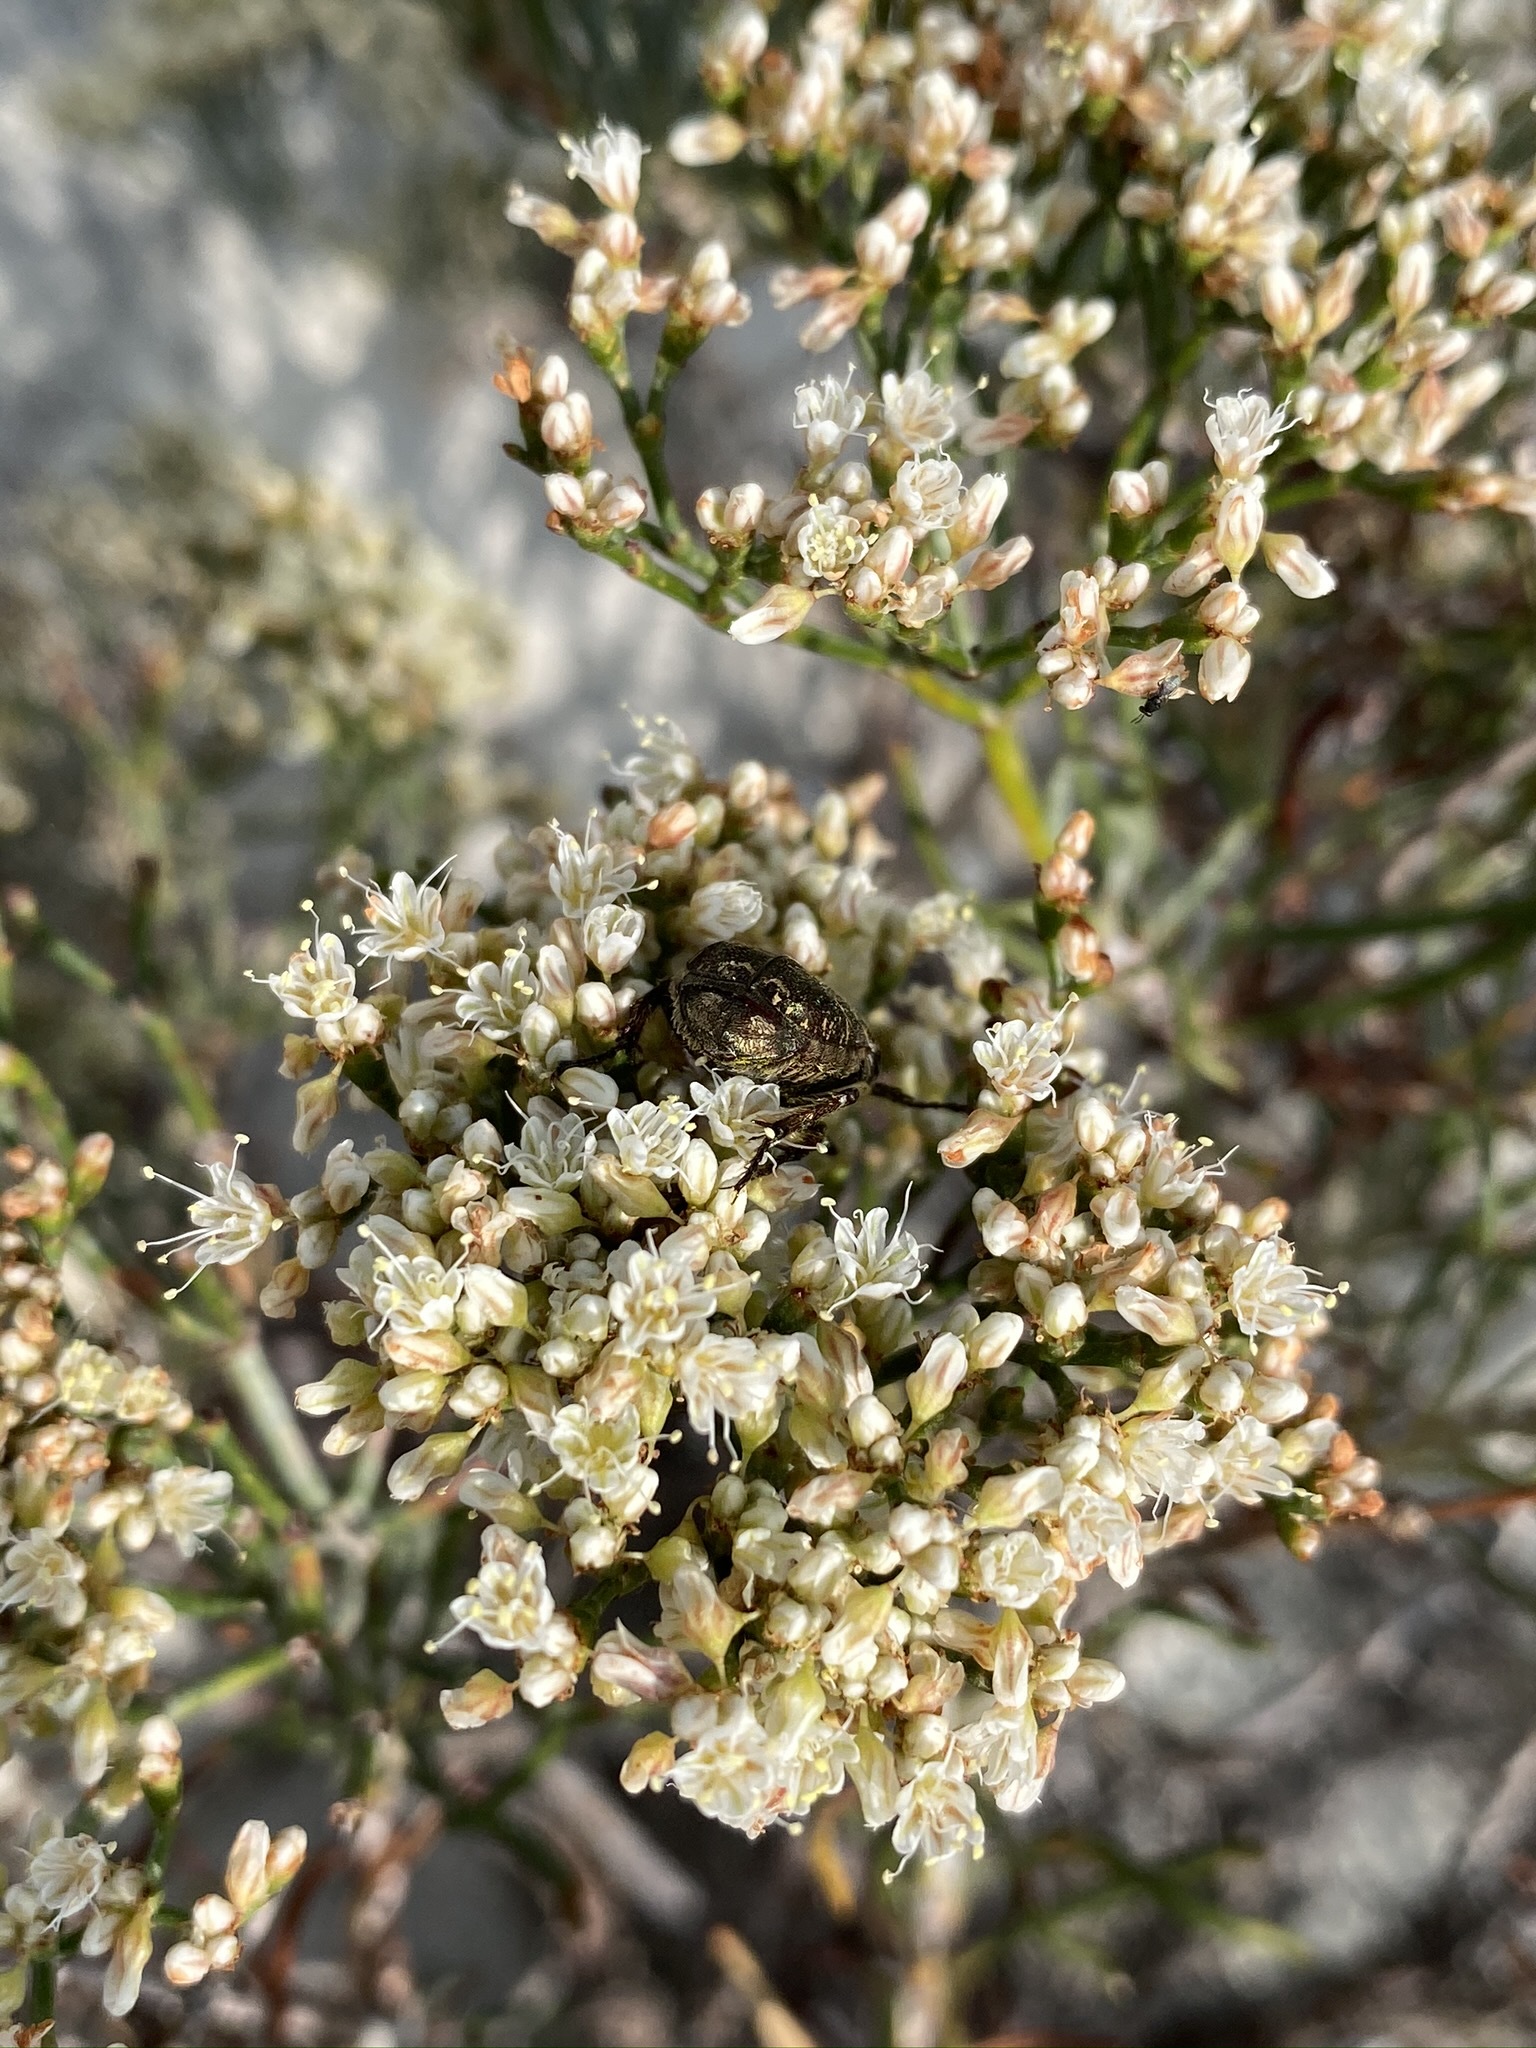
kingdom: Plantae
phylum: Tracheophyta
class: Magnoliopsida
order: Caryophyllales
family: Polygonaceae
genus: Eriogonum
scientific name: Eriogonum helichrysoides
